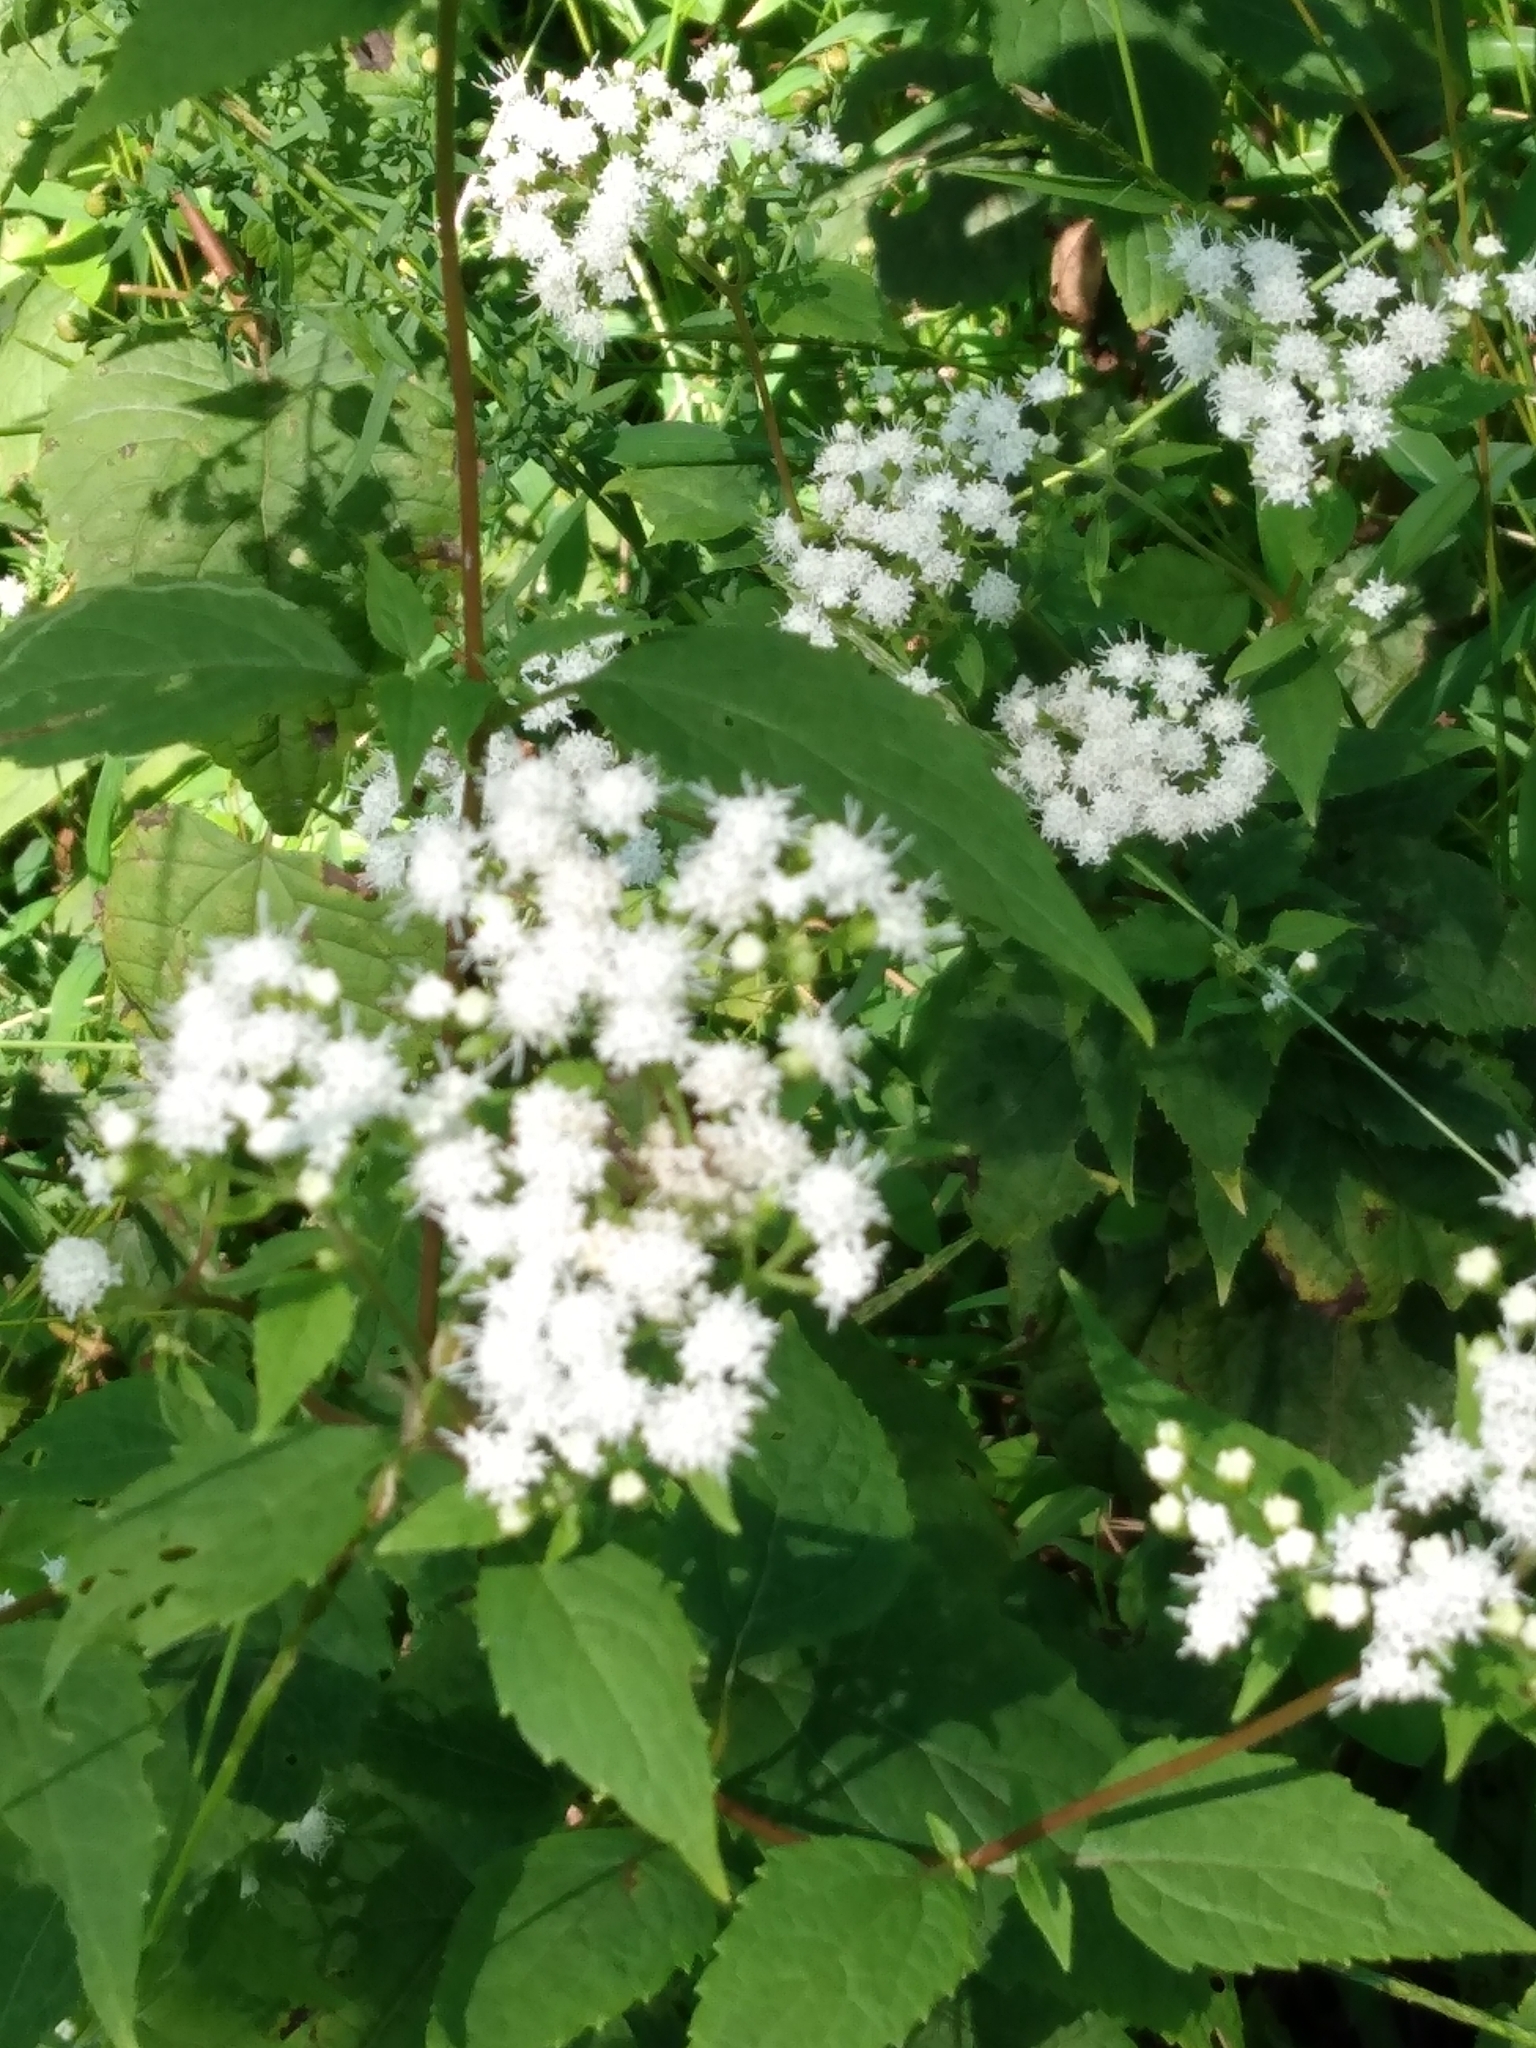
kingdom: Plantae
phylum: Tracheophyta
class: Magnoliopsida
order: Asterales
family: Asteraceae
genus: Ageratina
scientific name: Ageratina altissima
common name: White snakeroot
